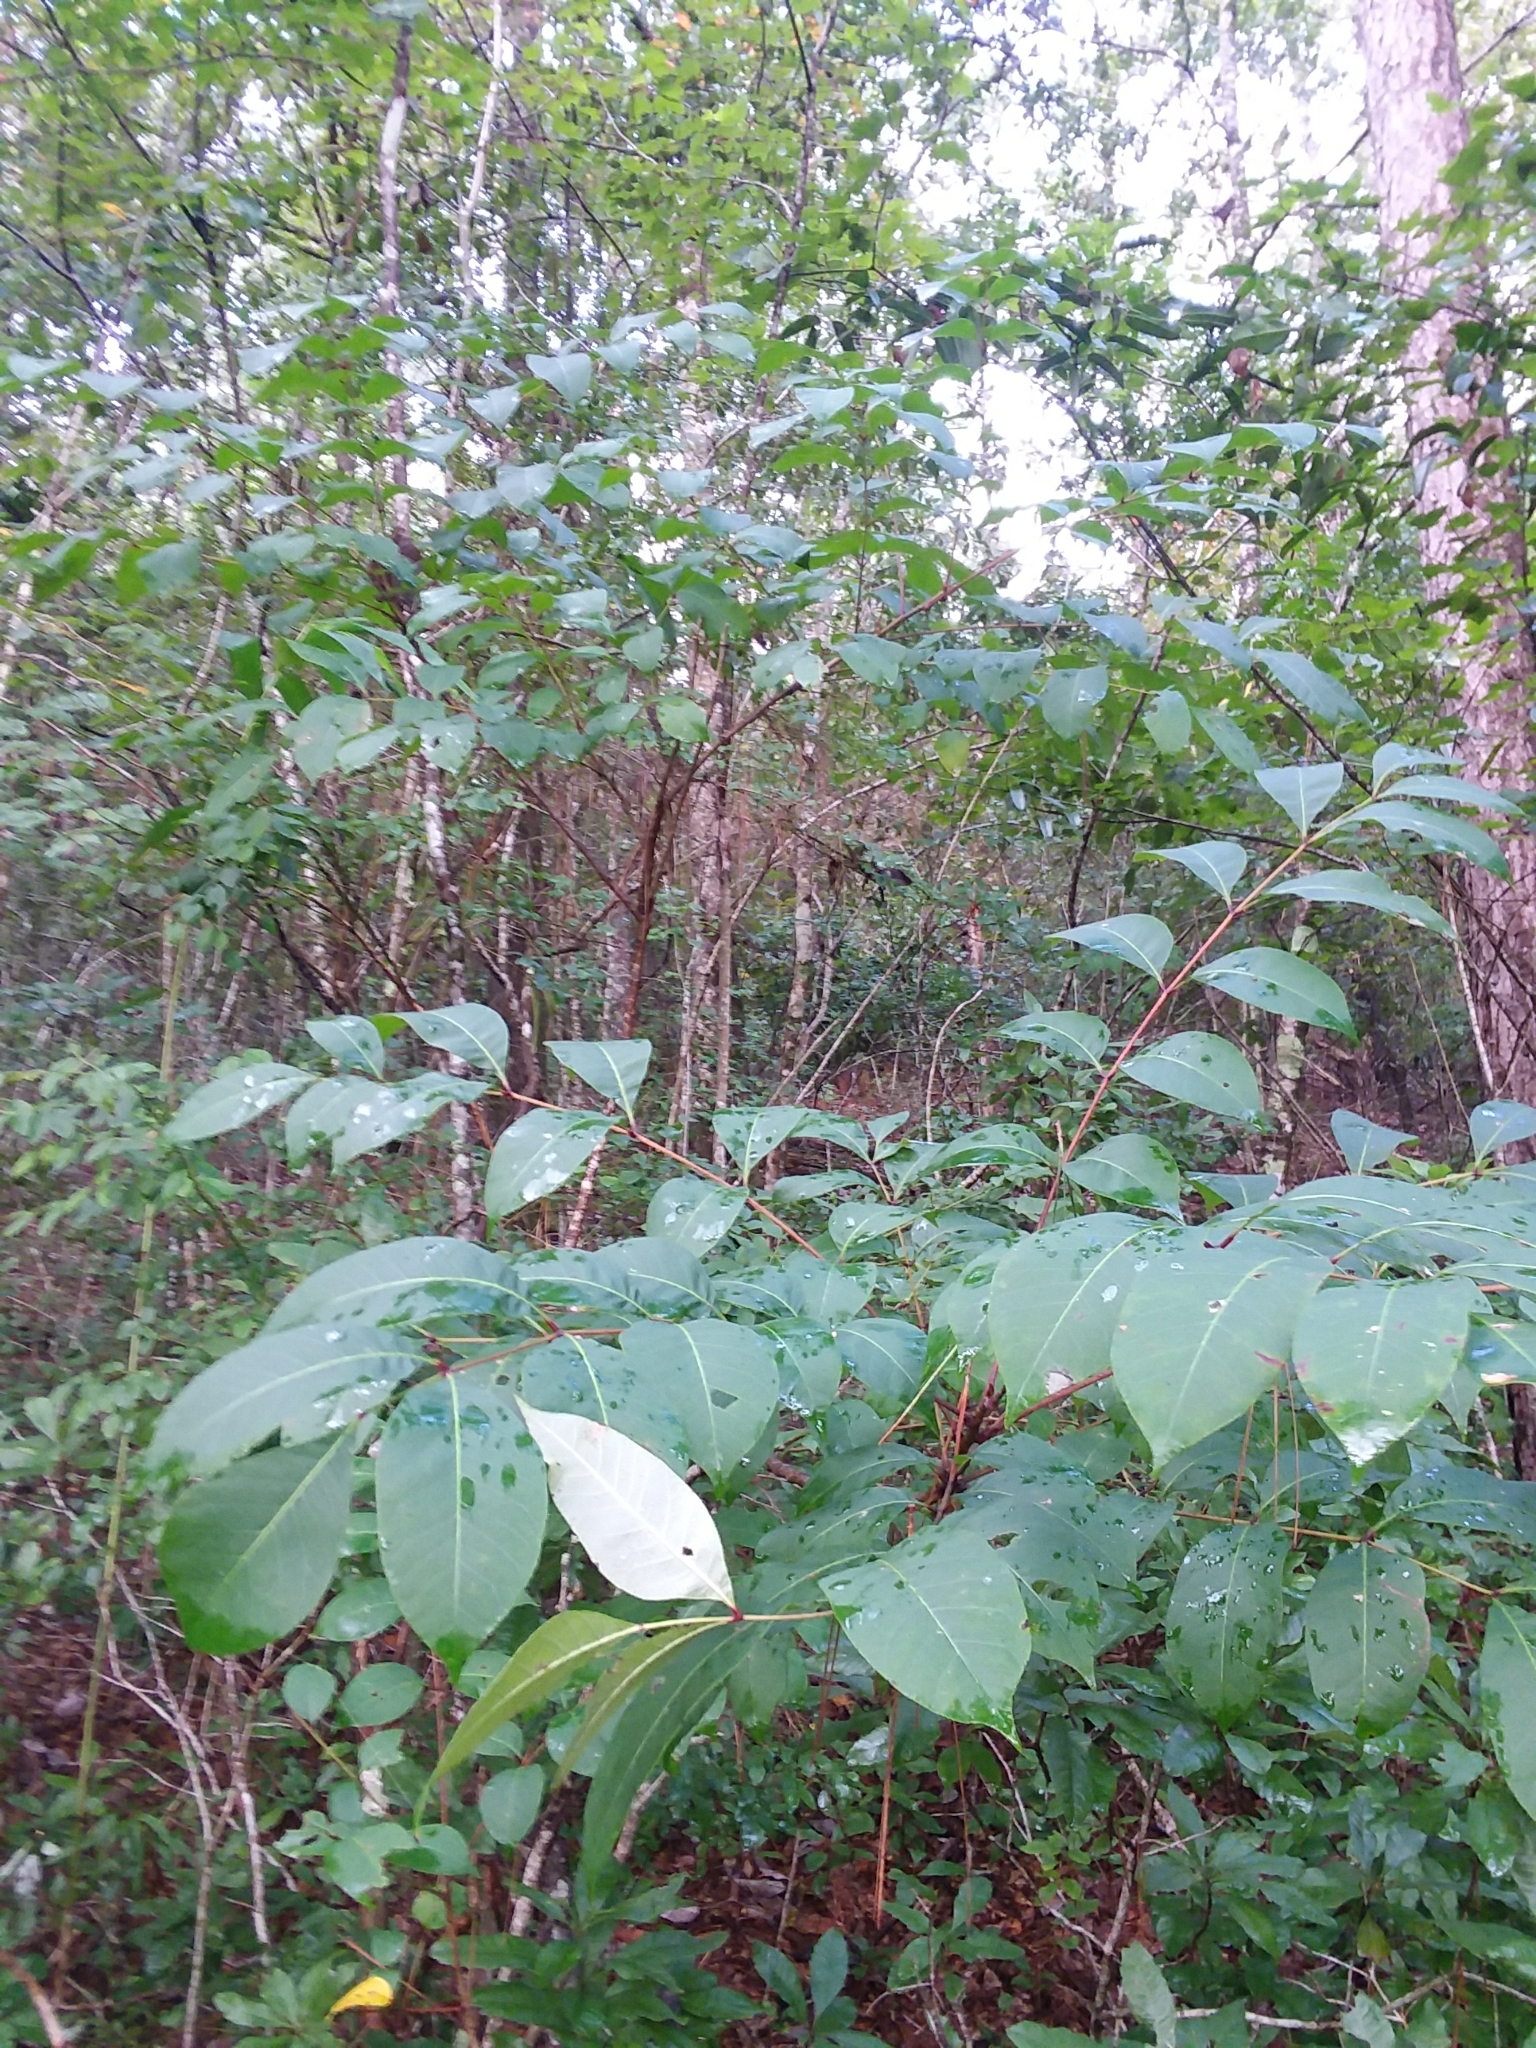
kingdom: Plantae
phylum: Tracheophyta
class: Magnoliopsida
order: Sapindales
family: Anacardiaceae
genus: Toxicodendron
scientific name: Toxicodendron vernix
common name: Poison sumac
